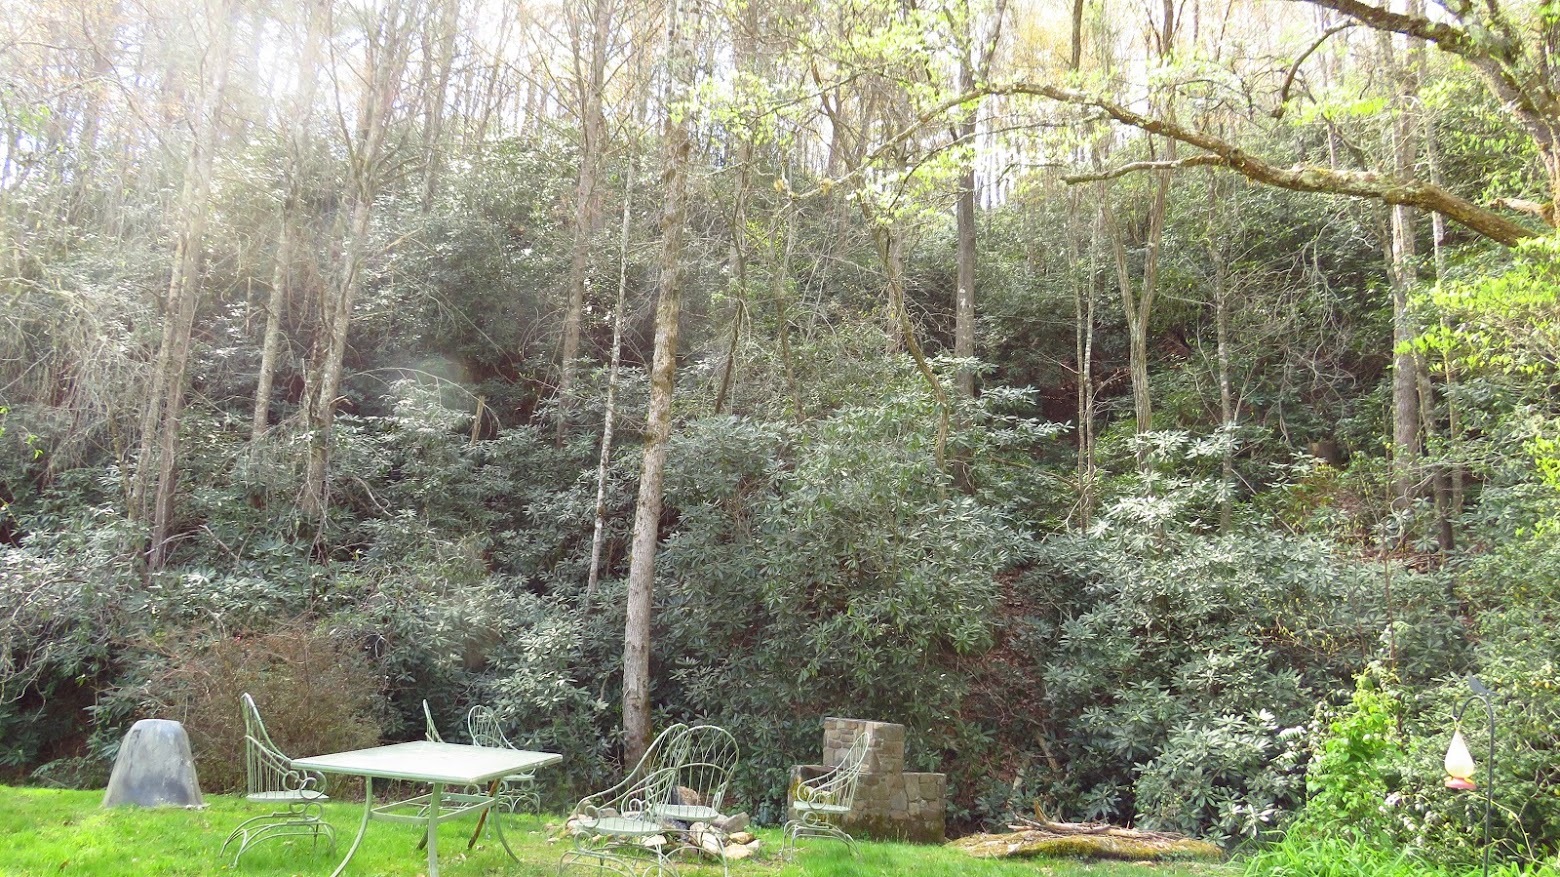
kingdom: Plantae
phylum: Tracheophyta
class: Magnoliopsida
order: Ericales
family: Ericaceae
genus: Rhododendron
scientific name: Rhododendron maximum
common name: Great rhododendron
